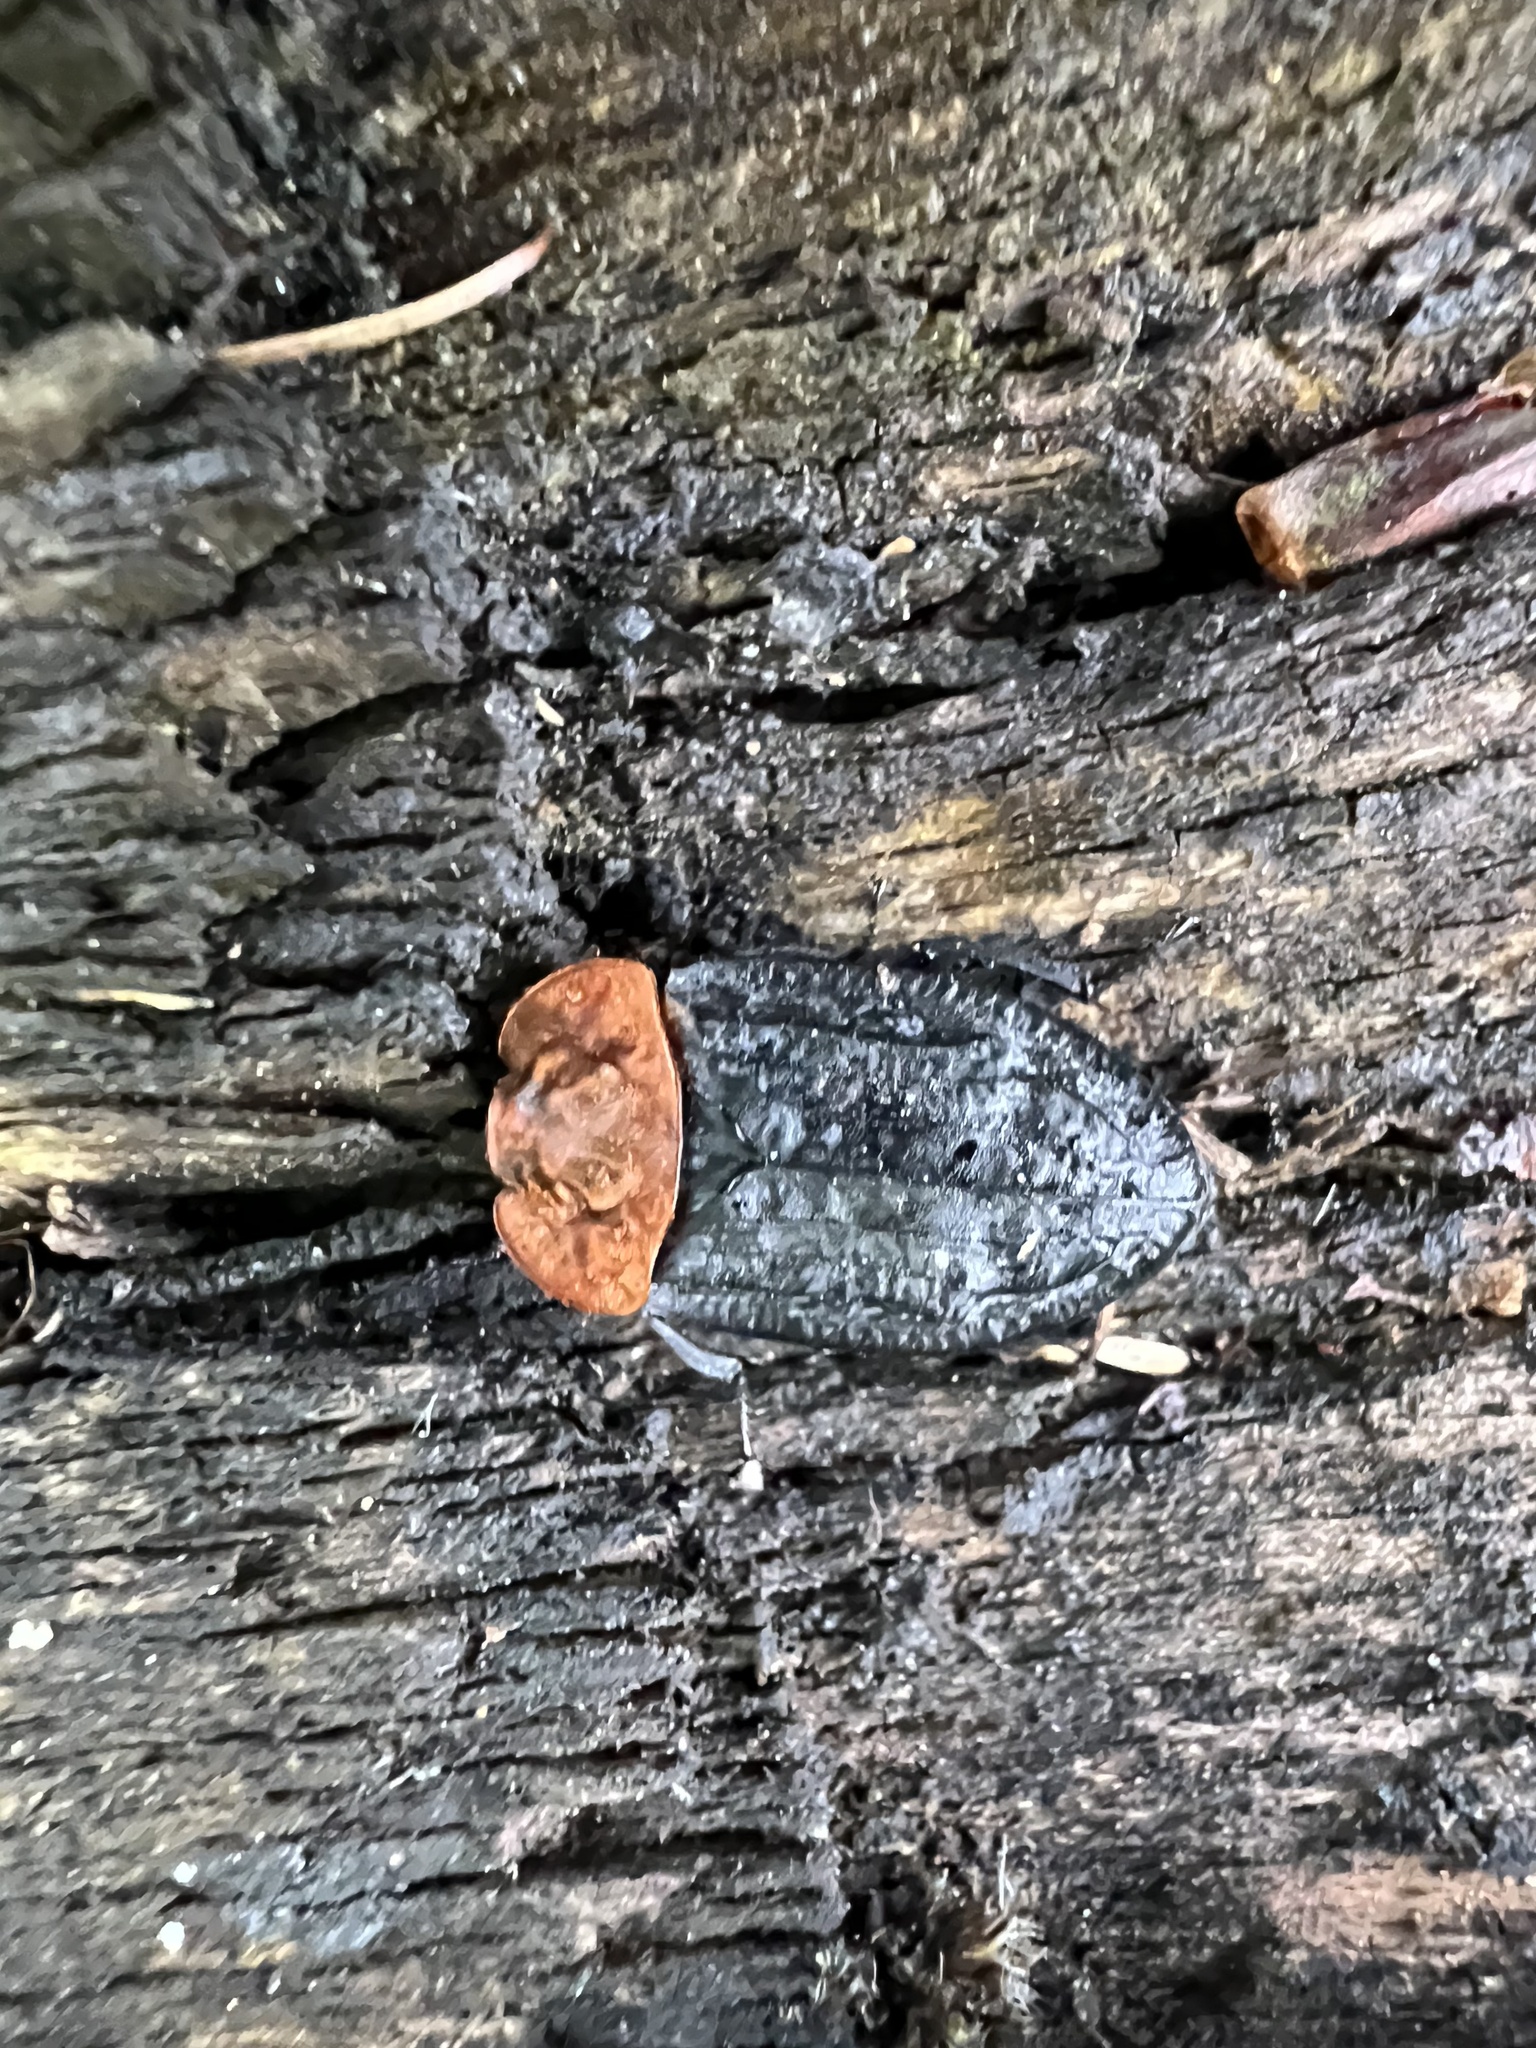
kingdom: Animalia
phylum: Arthropoda
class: Insecta
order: Coleoptera
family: Staphylinidae
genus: Oiceoptoma
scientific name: Oiceoptoma thoracicum
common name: Red-breasted carrion beetle
